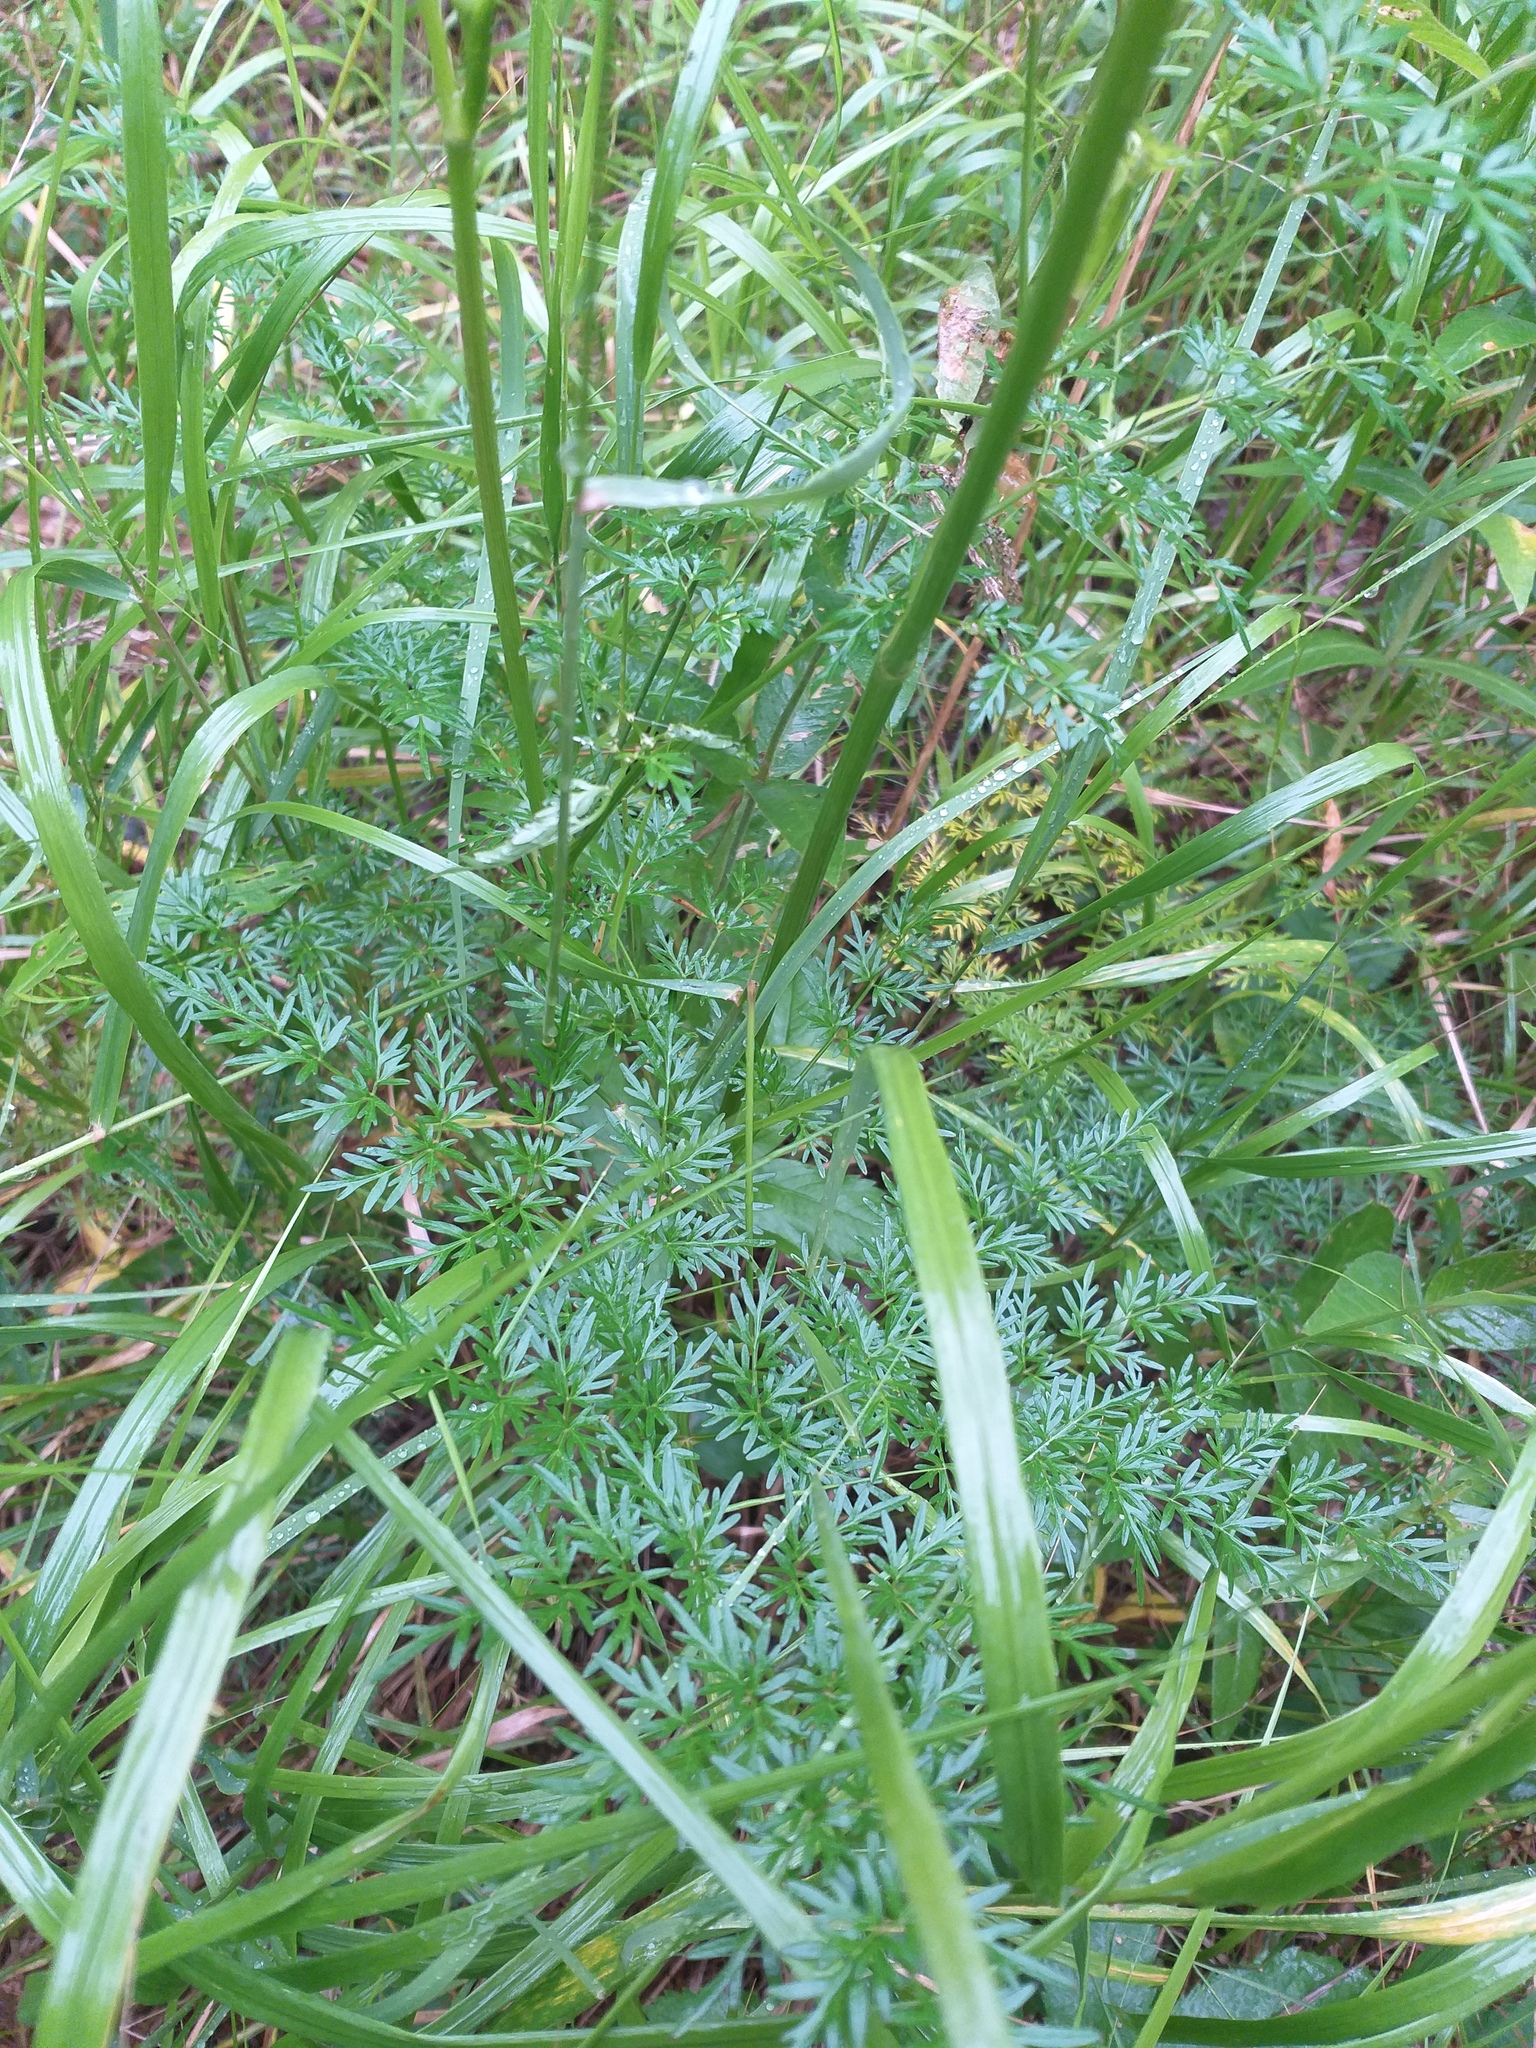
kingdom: Plantae
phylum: Tracheophyta
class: Magnoliopsida
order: Apiales
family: Apiaceae
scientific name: Apiaceae
